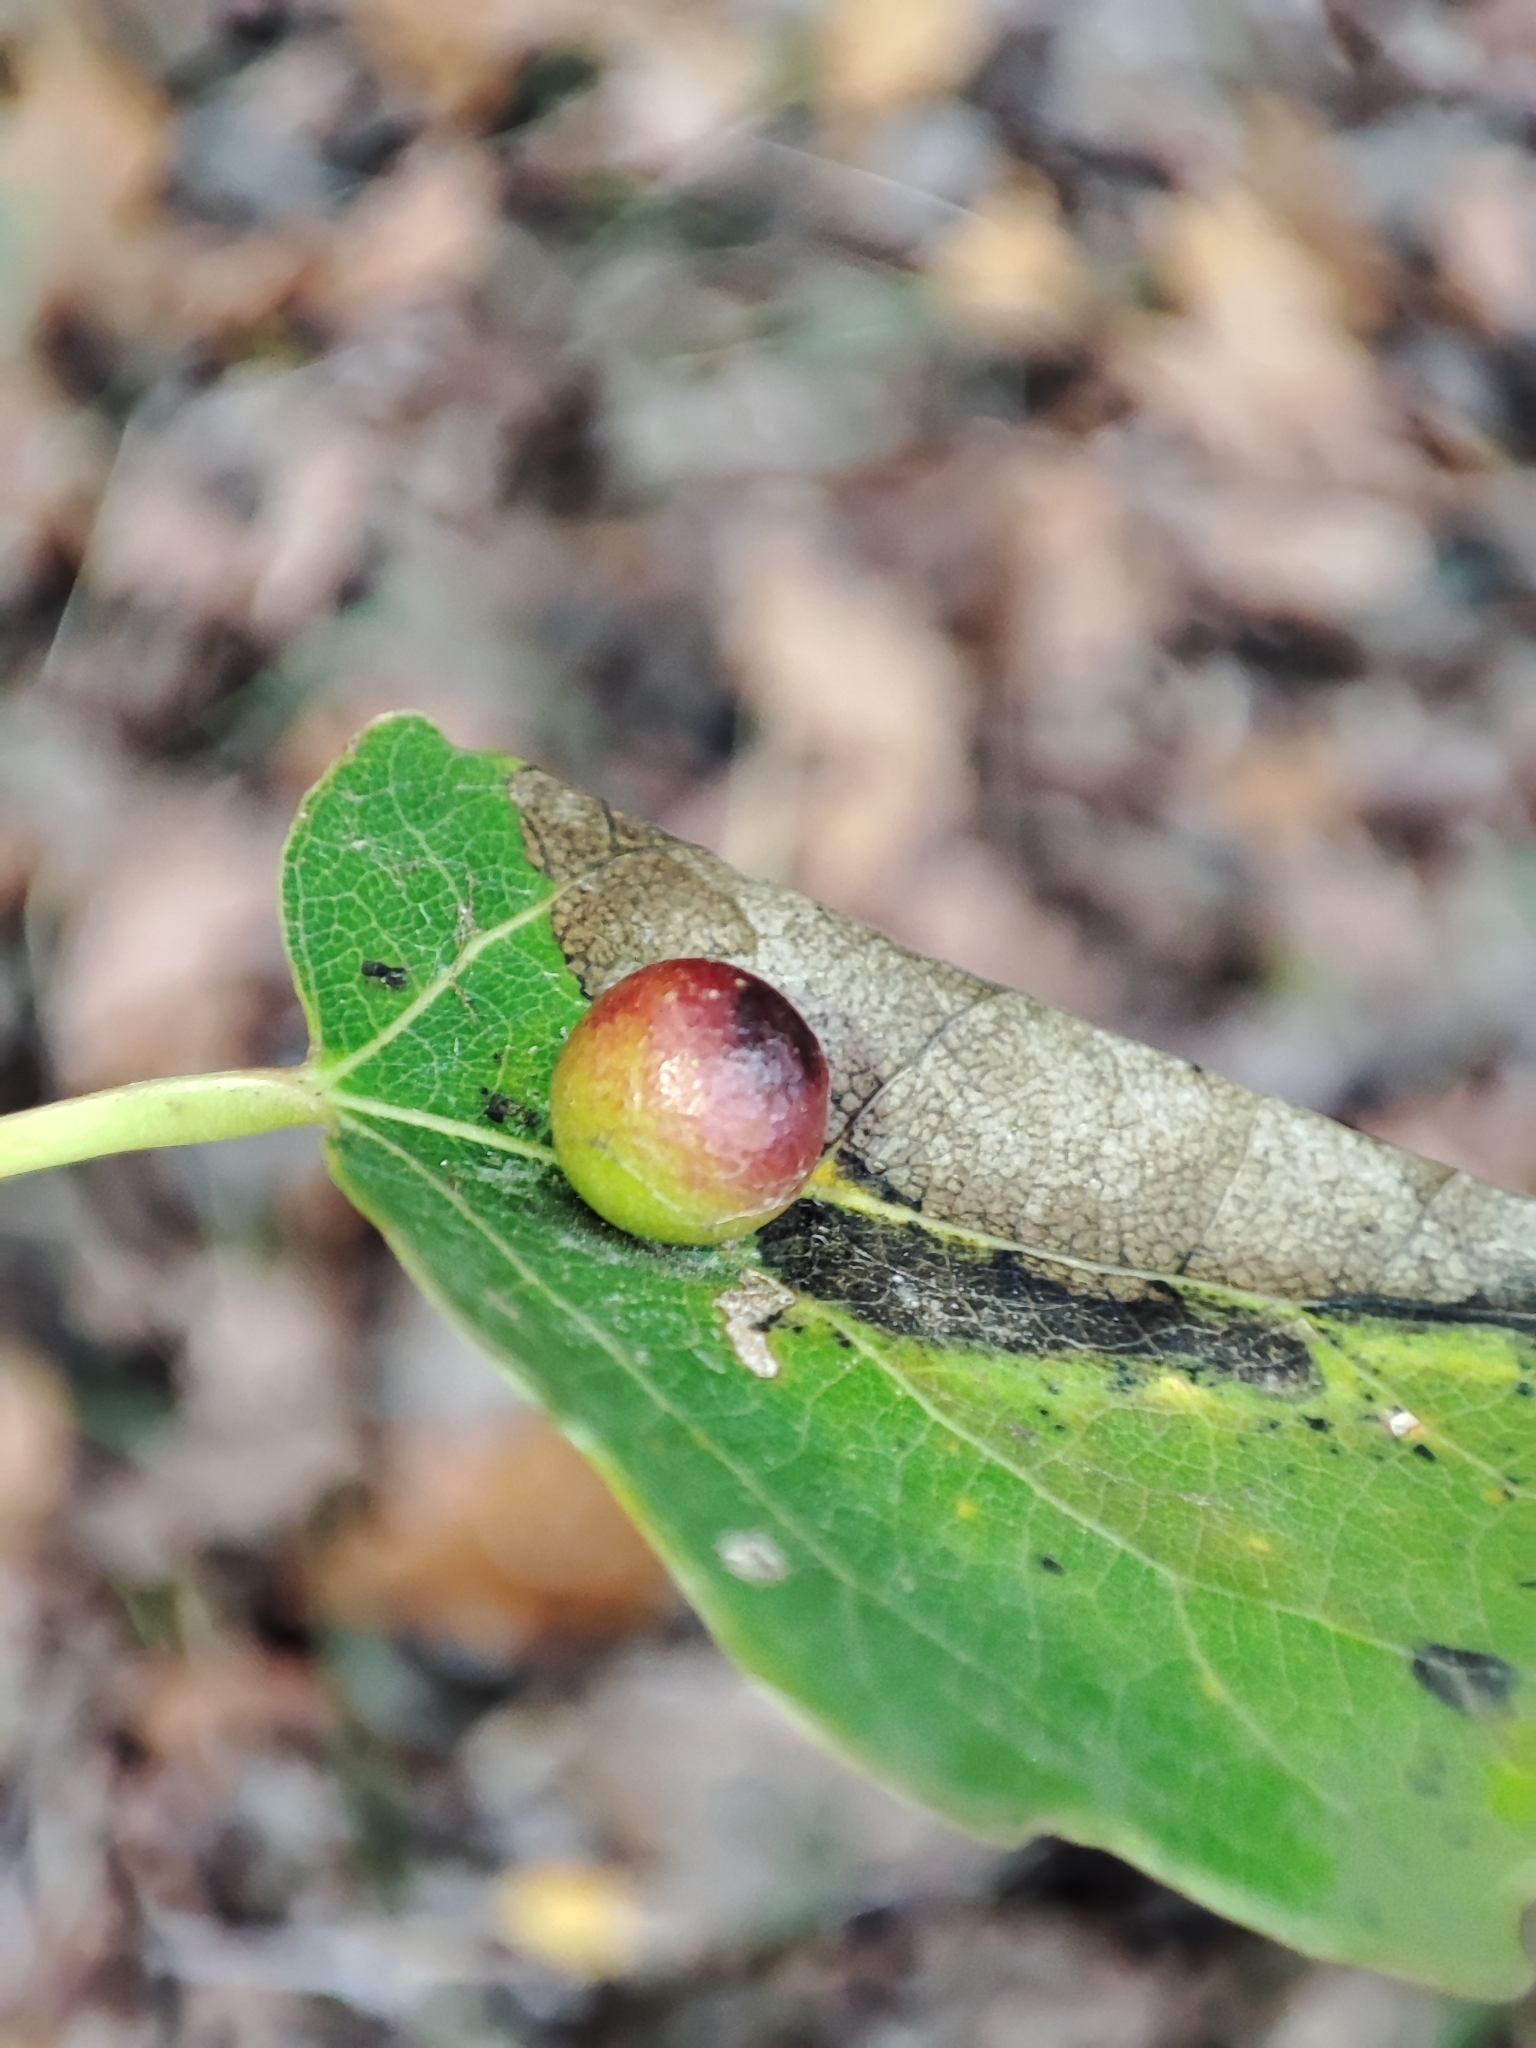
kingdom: Animalia
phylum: Arthropoda
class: Insecta
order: Diptera
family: Cecidomyiidae
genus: Harmandiola
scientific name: Harmandiola tremulae
